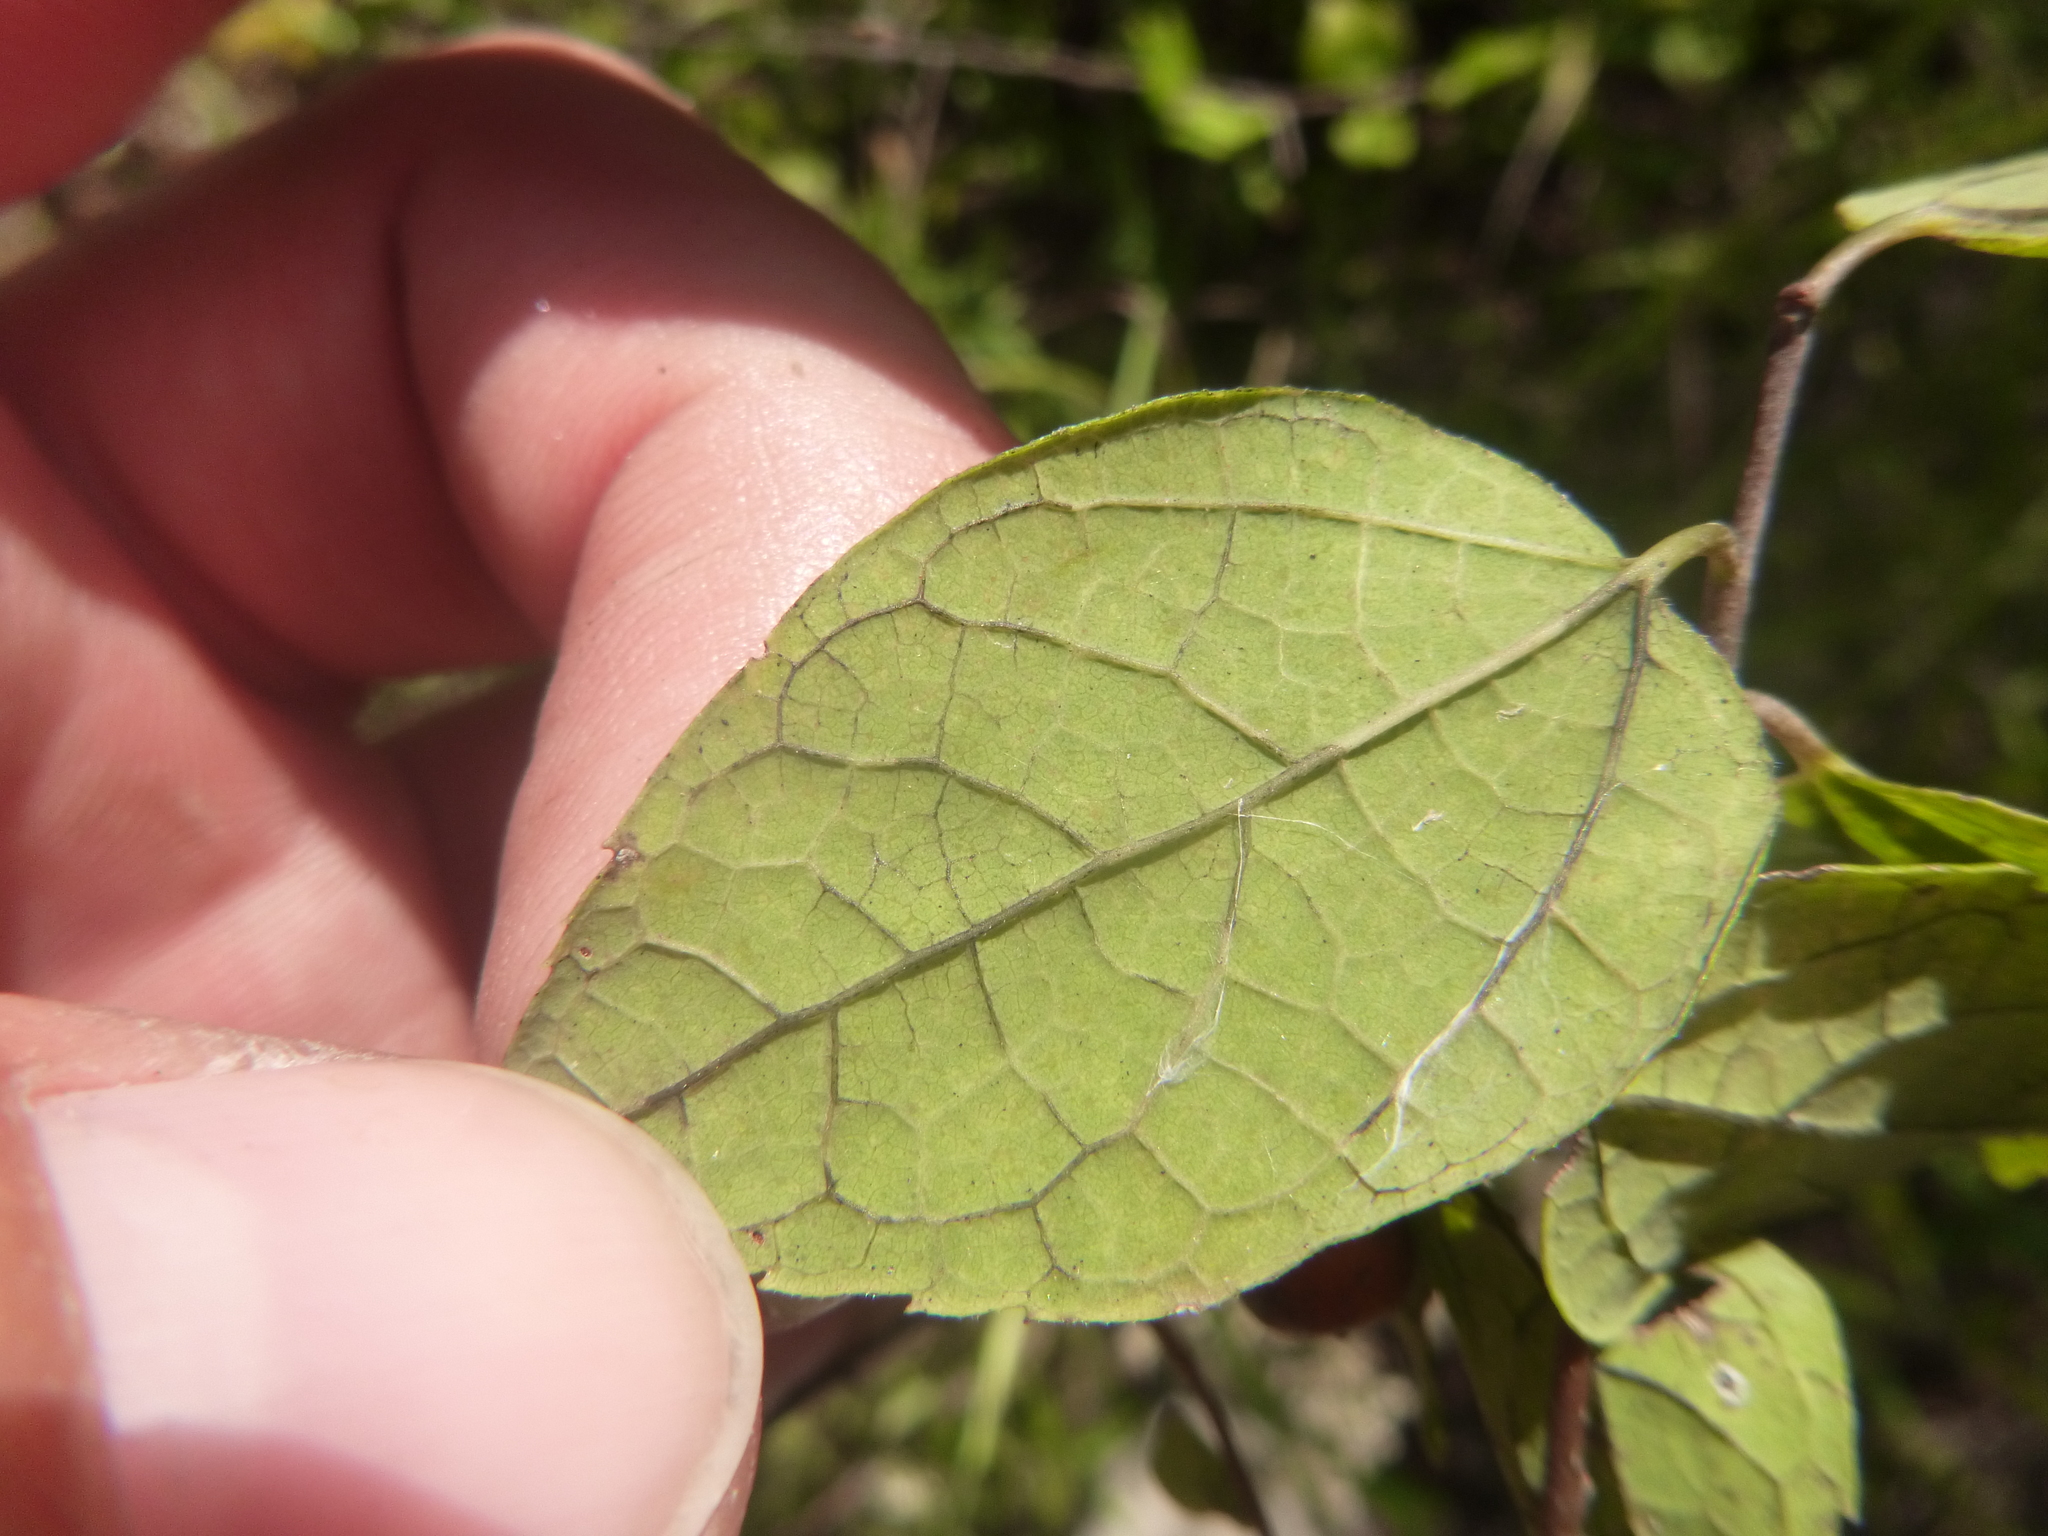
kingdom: Plantae
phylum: Tracheophyta
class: Magnoliopsida
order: Rosales
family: Cannabaceae
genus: Celtis
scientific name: Celtis tenuifolia
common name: Georgia hackberry
